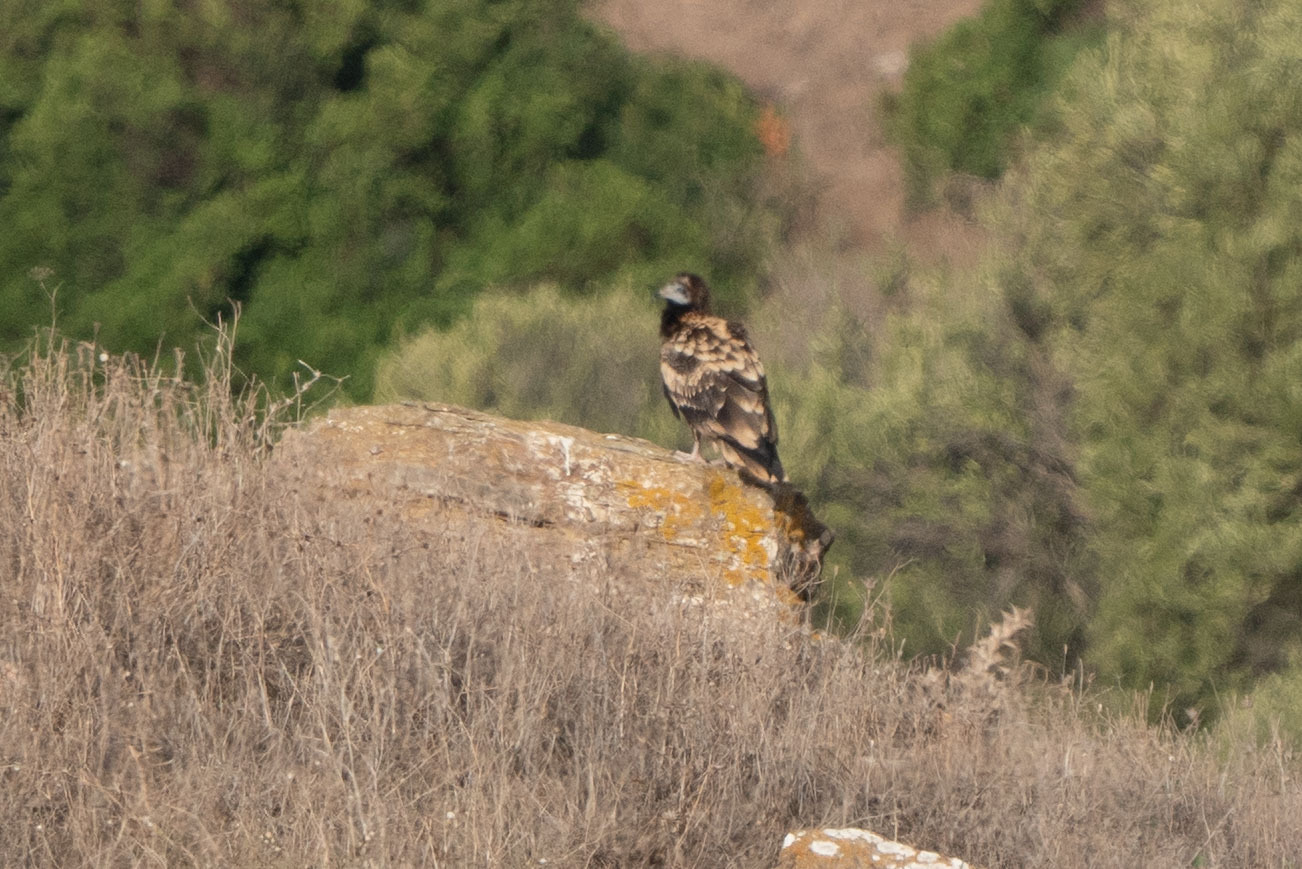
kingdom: Animalia
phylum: Chordata
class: Aves
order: Accipitriformes
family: Accipitridae
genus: Neophron
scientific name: Neophron percnopterus
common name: Egyptian vulture
